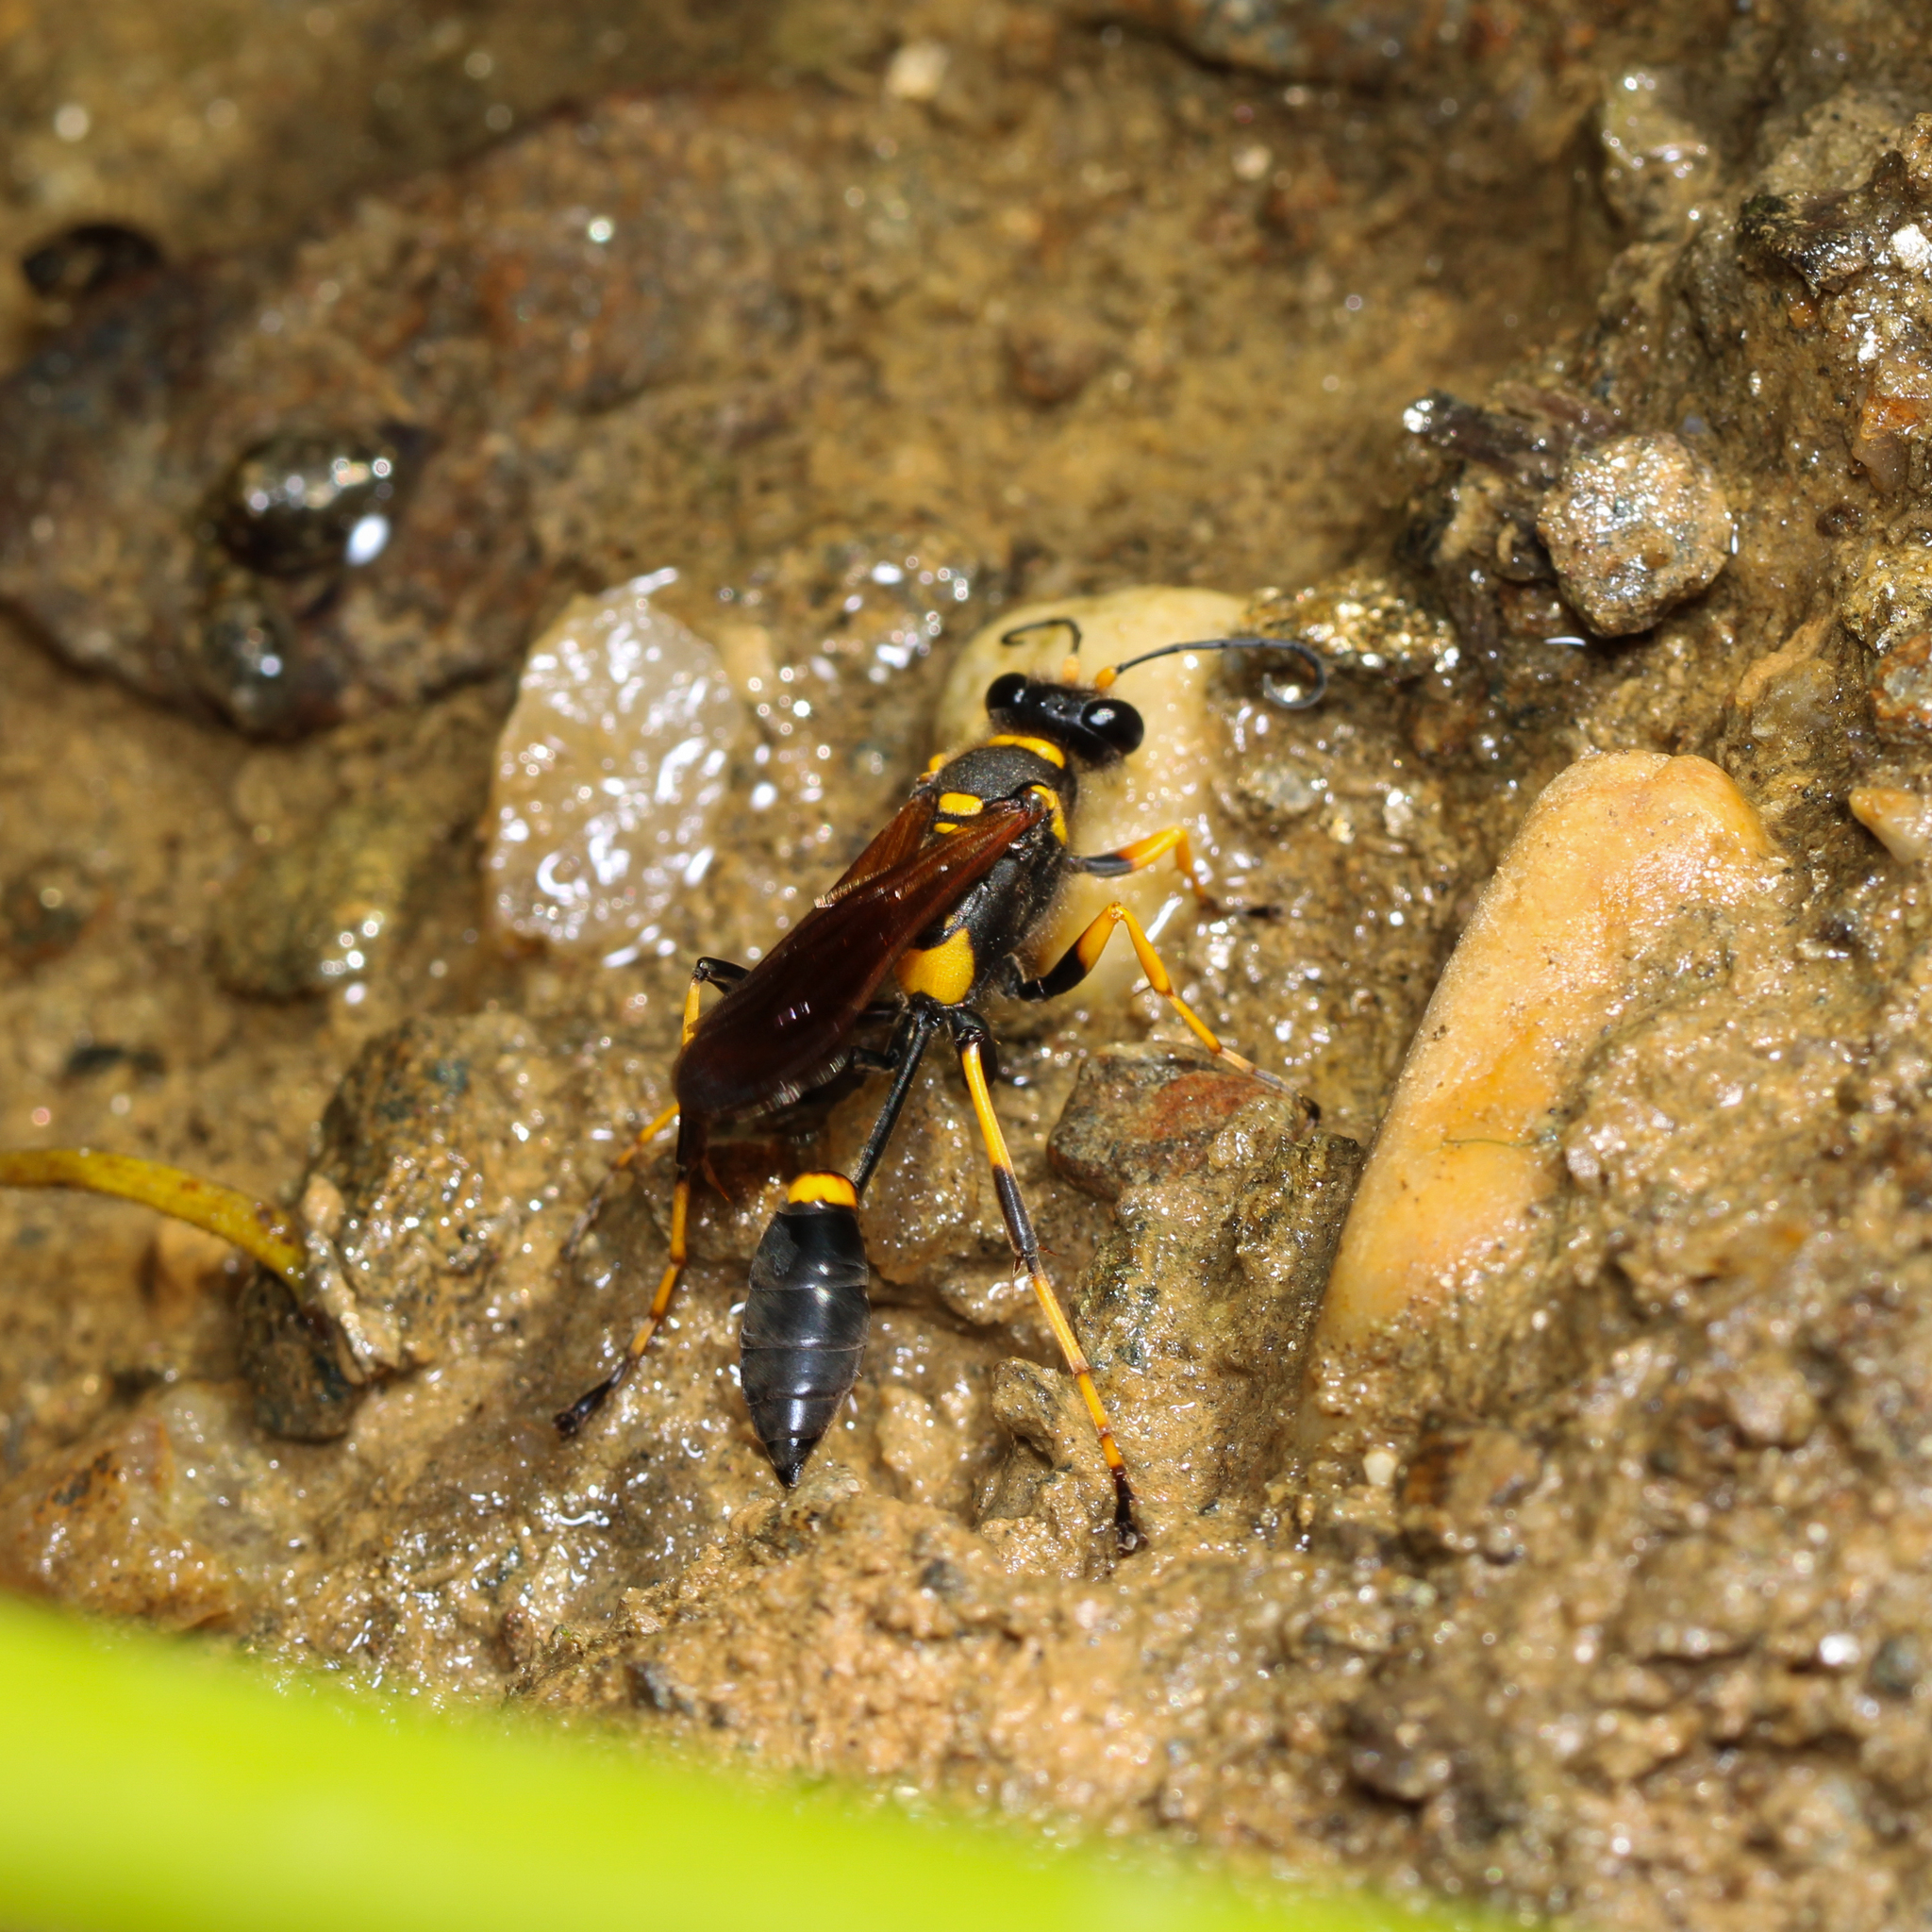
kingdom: Animalia
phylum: Arthropoda
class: Insecta
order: Hymenoptera
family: Sphecidae
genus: Sceliphron
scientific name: Sceliphron caementarium
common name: Mud dauber
